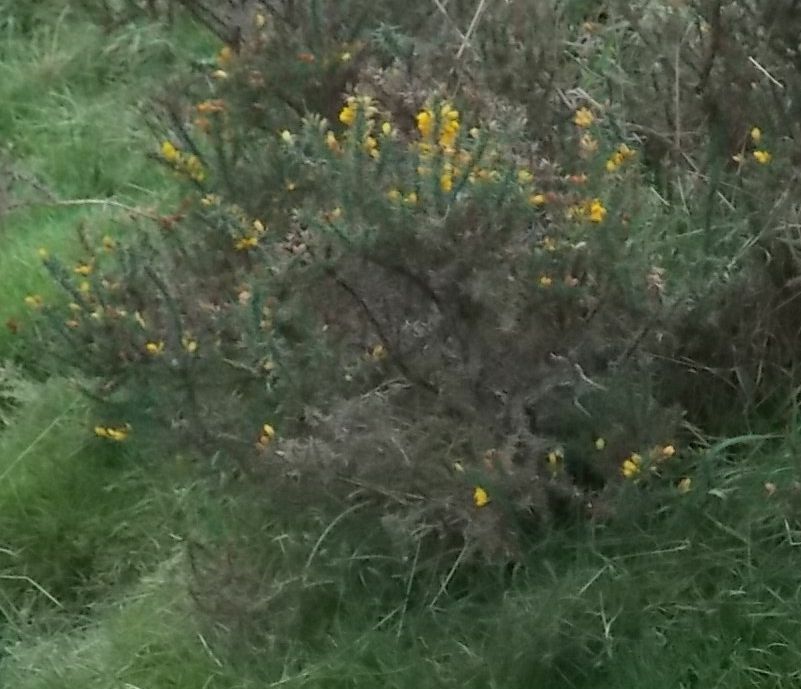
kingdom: Plantae
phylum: Tracheophyta
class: Magnoliopsida
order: Fabales
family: Fabaceae
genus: Ulex
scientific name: Ulex europaeus
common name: Common gorse
